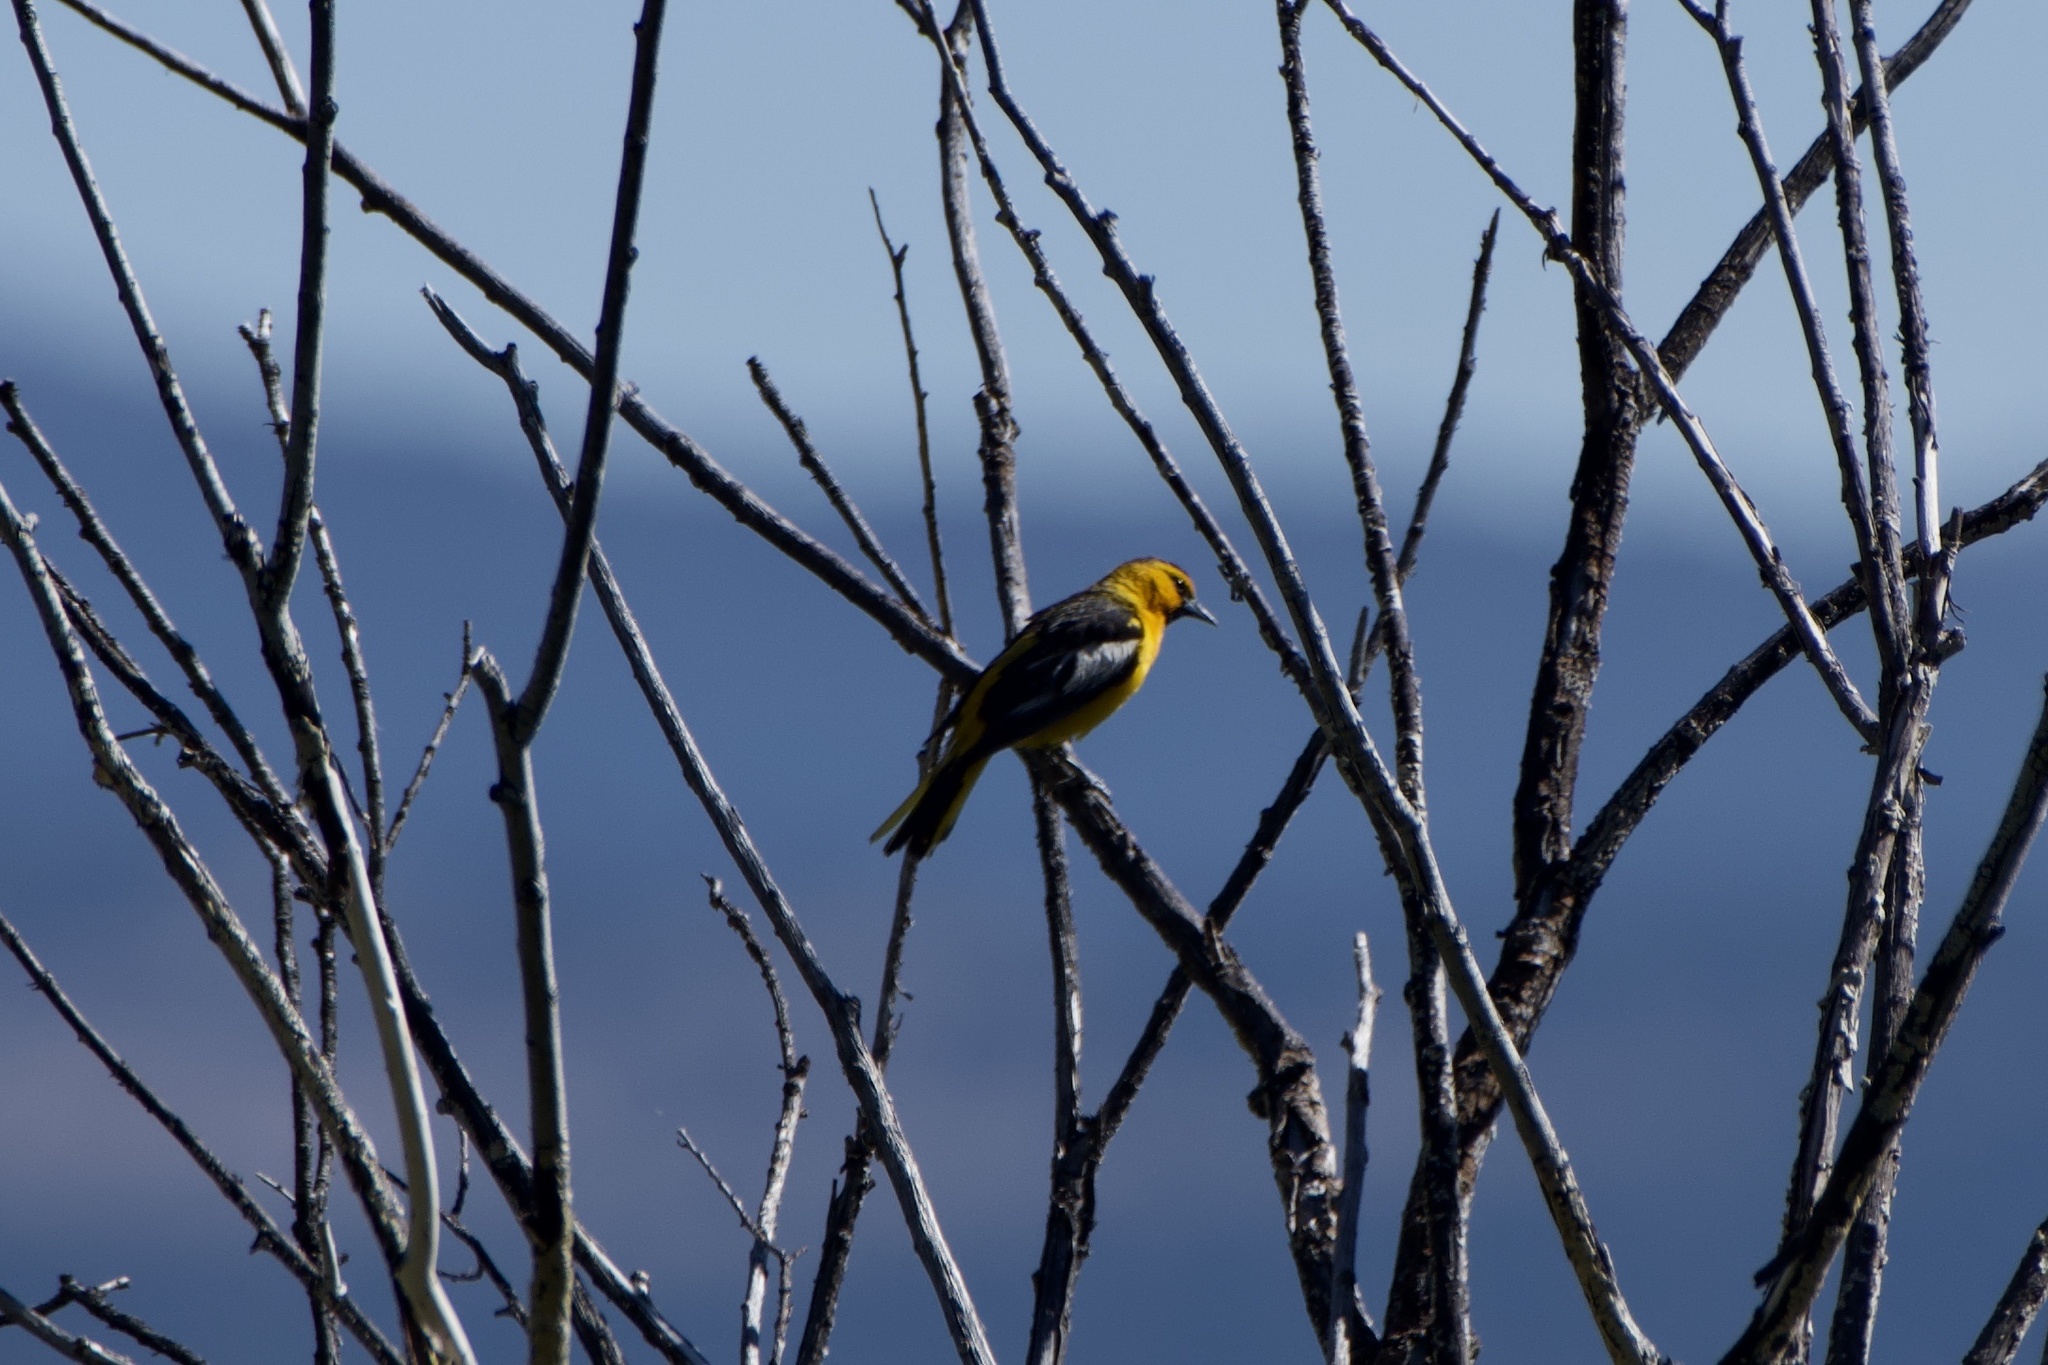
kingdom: Animalia
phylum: Chordata
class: Aves
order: Passeriformes
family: Icteridae
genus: Icterus
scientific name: Icterus bullockii
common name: Bullock's oriole
